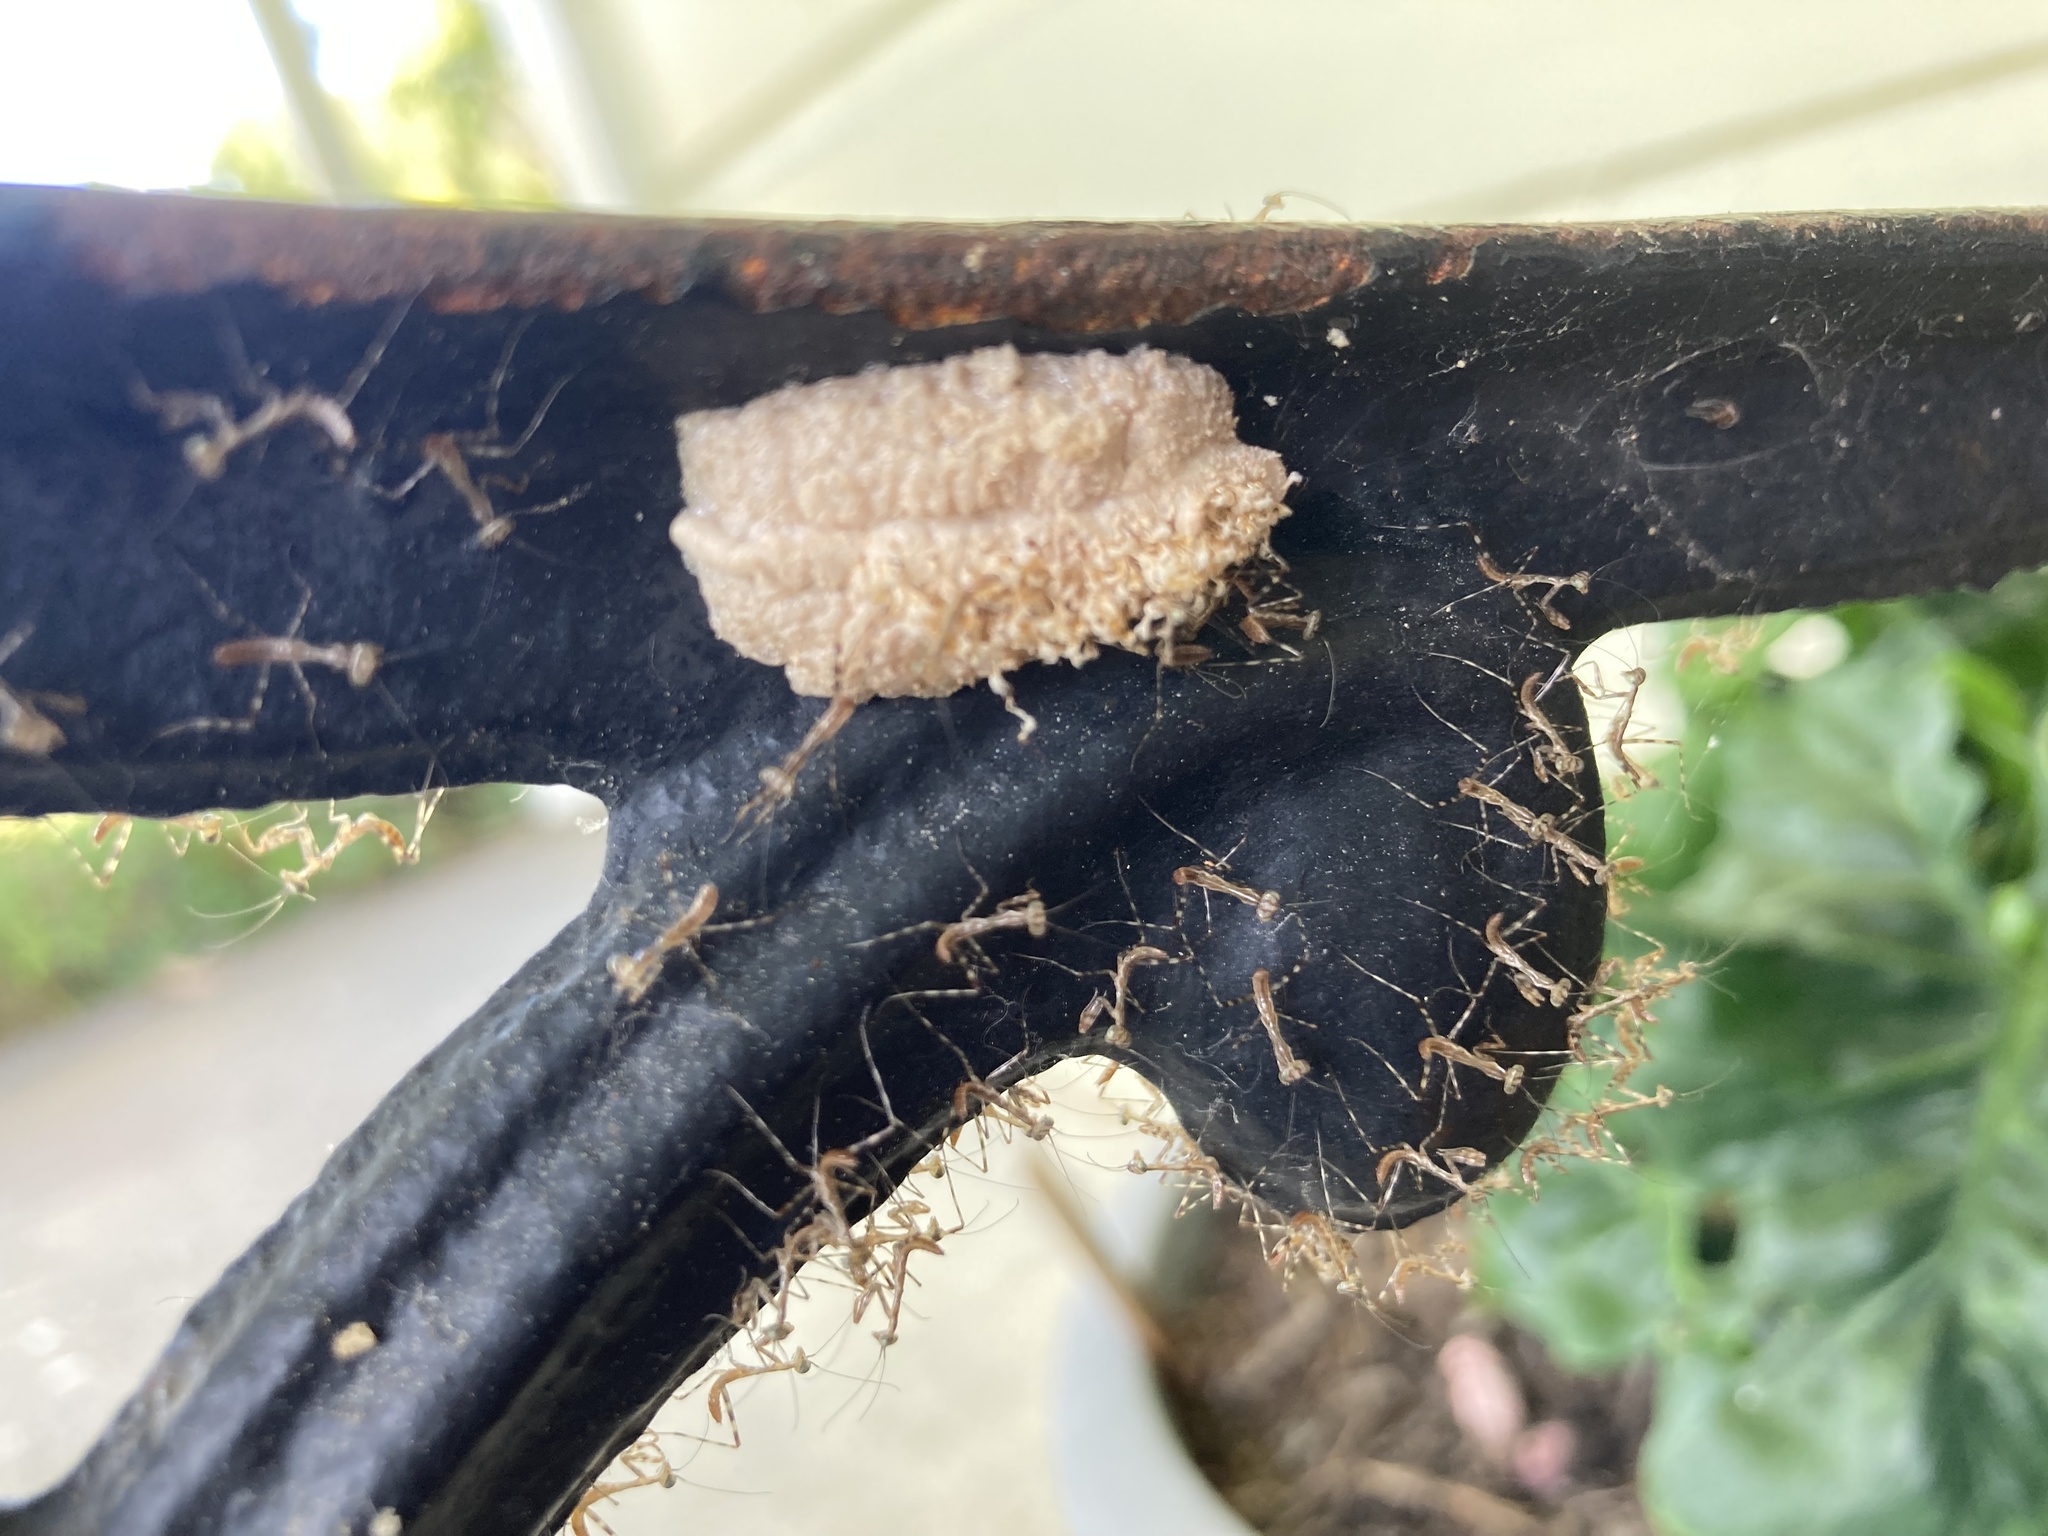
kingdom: Animalia
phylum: Arthropoda
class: Insecta
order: Mantodea
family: Miomantidae
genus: Miomantis
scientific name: Miomantis caffra
